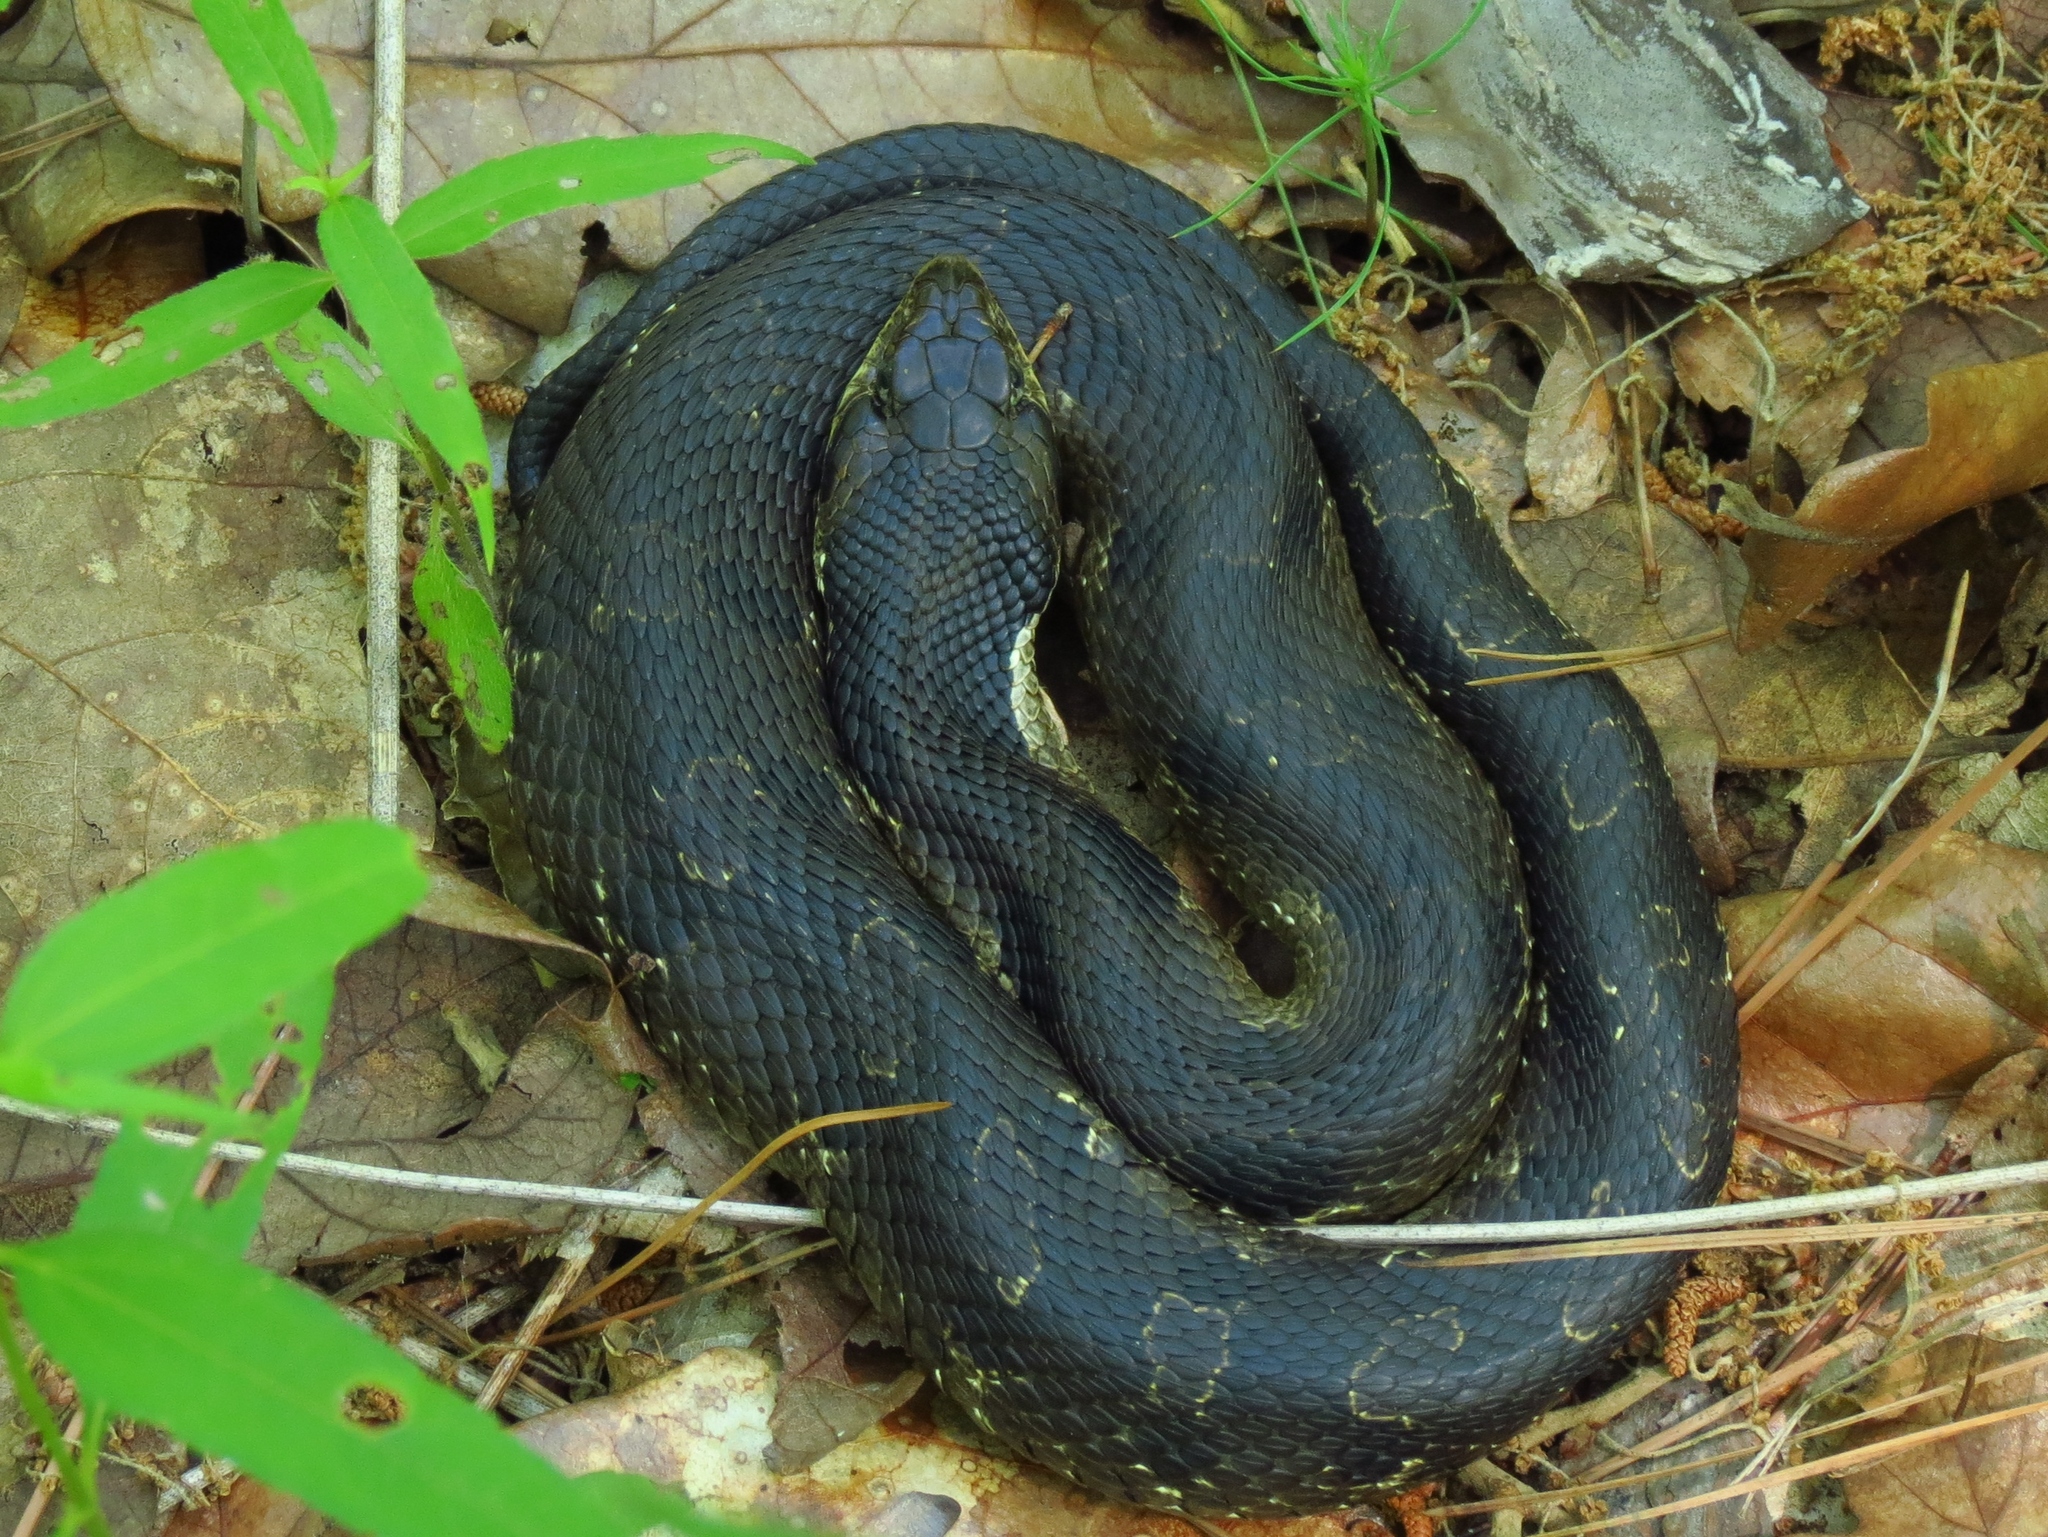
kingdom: Animalia
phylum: Chordata
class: Squamata
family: Colubridae
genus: Heterodon
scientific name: Heterodon platirhinos
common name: Eastern hognose snake
